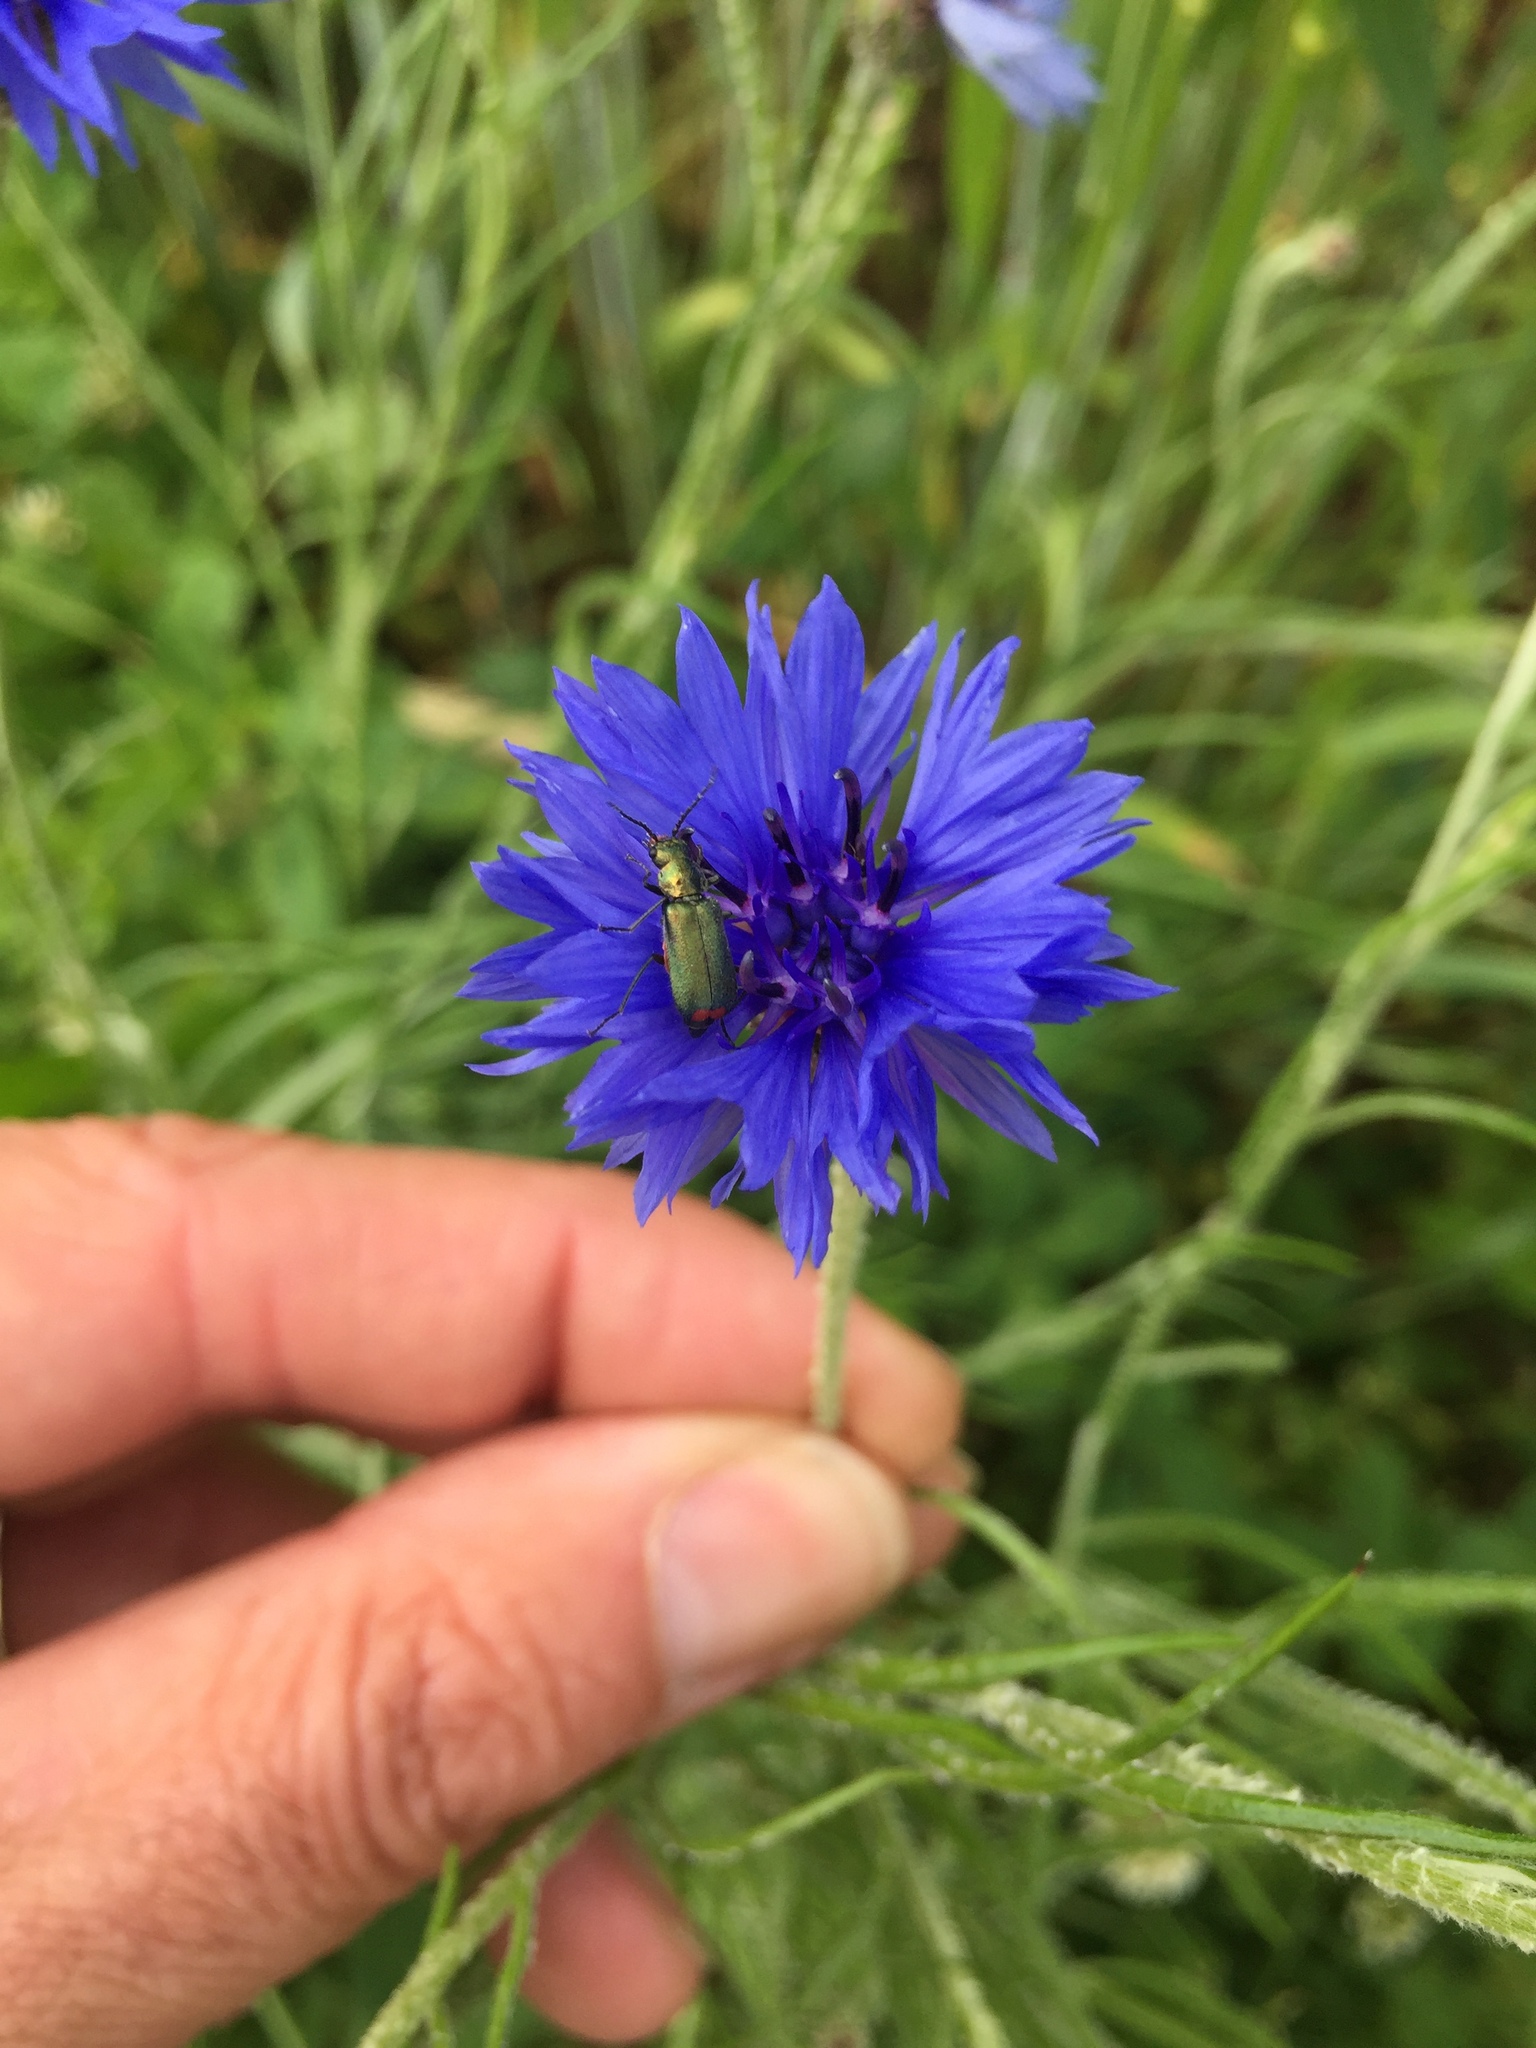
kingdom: Plantae
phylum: Tracheophyta
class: Magnoliopsida
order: Asterales
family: Asteraceae
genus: Centaurea
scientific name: Centaurea cyanus
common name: Cornflower
